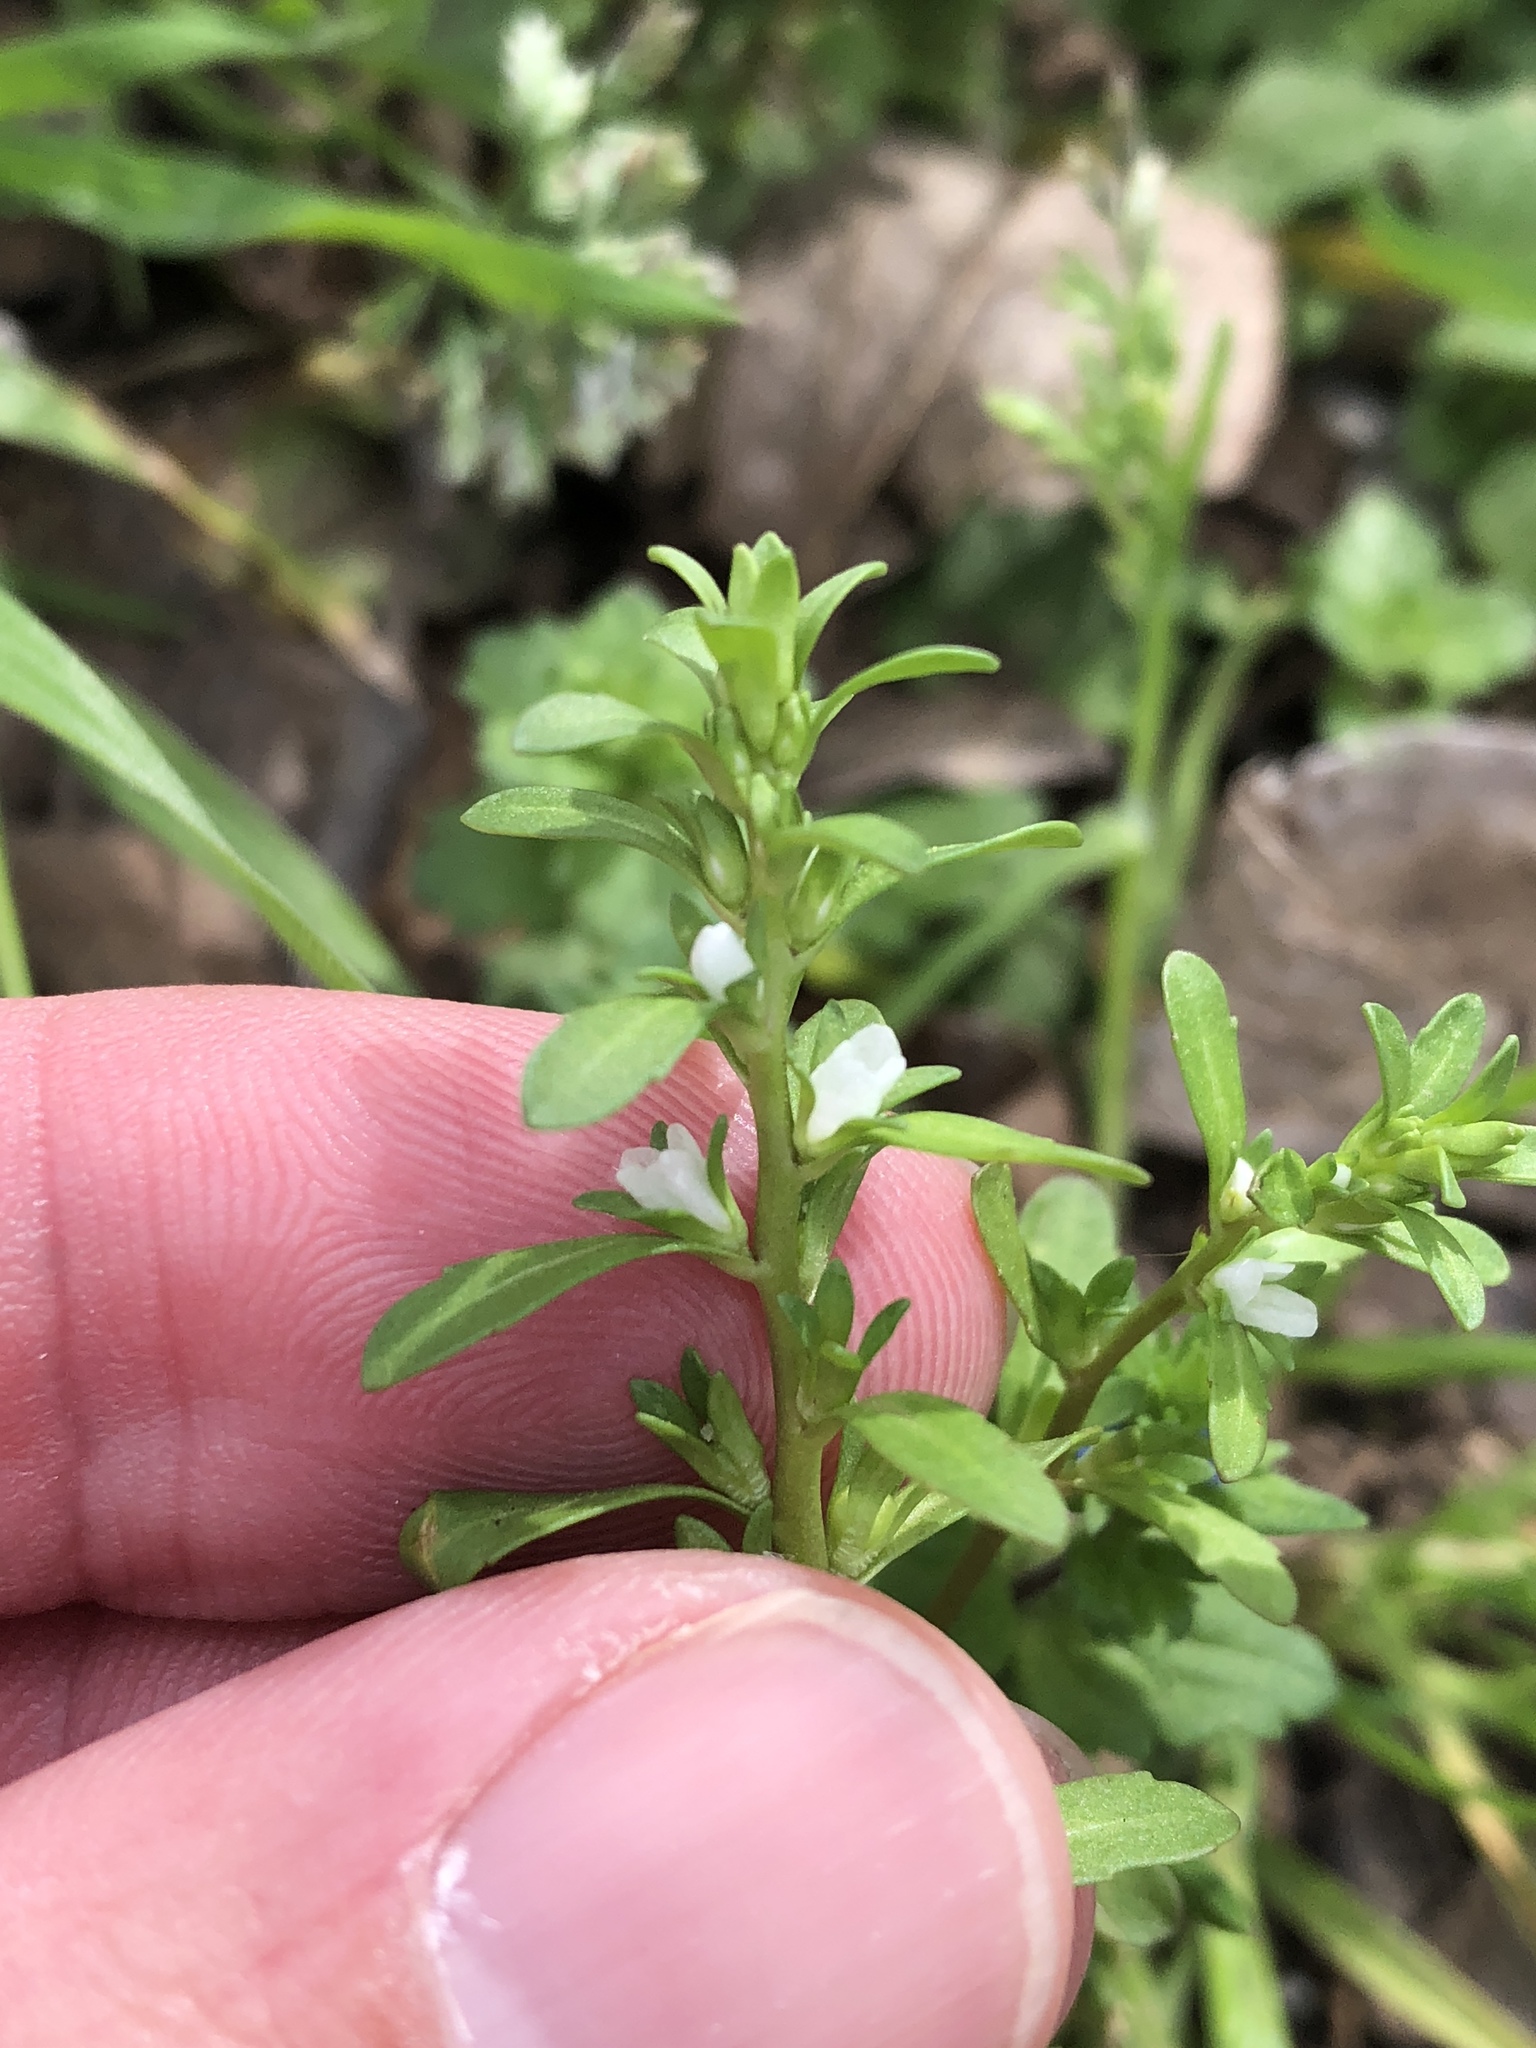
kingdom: Plantae
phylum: Tracheophyta
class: Magnoliopsida
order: Lamiales
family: Plantaginaceae
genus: Veronica
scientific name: Veronica peregrina
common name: Neckweed
